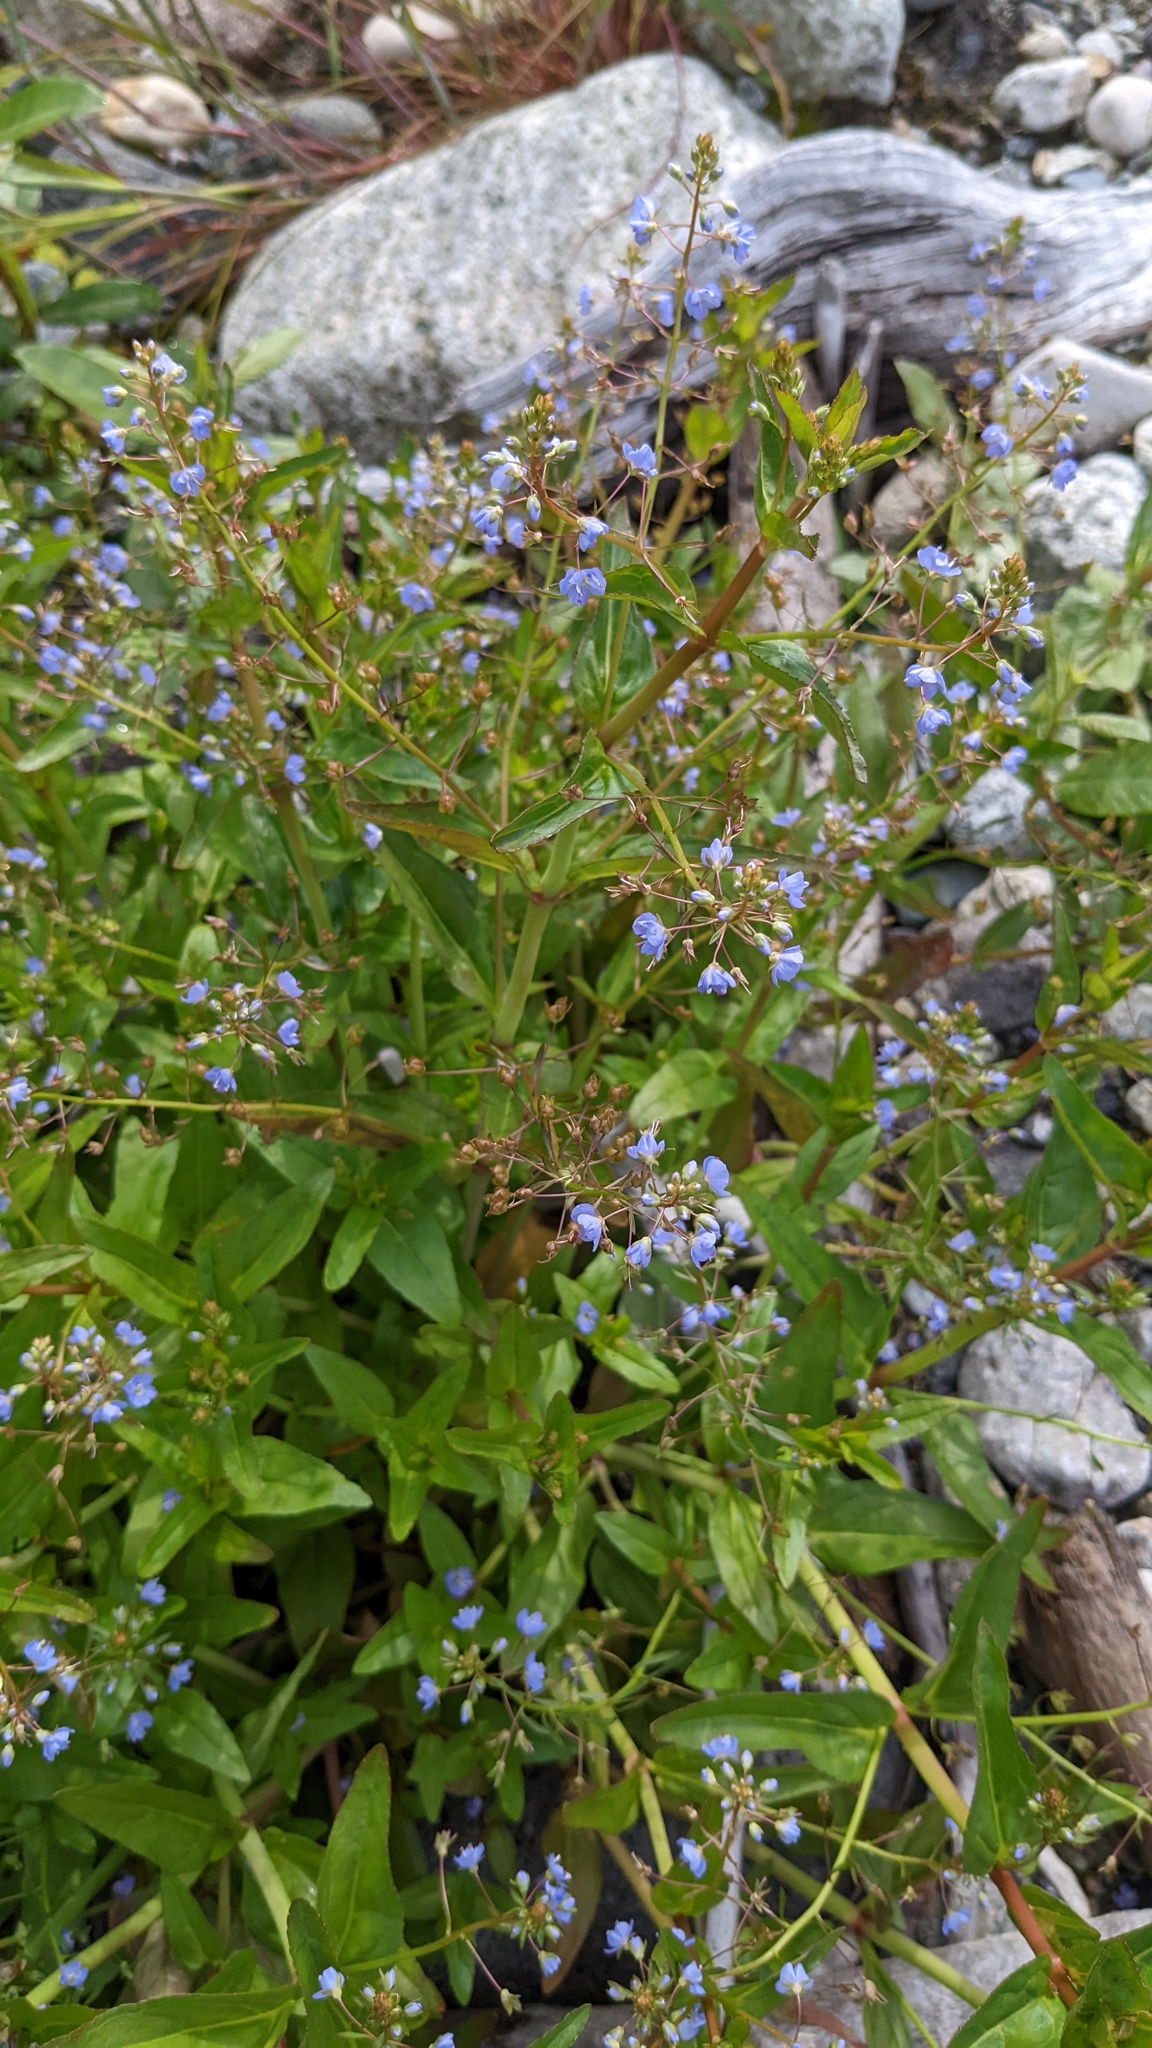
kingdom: Plantae
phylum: Tracheophyta
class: Magnoliopsida
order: Lamiales
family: Plantaginaceae
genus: Veronica
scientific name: Veronica americana
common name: American brooklime
